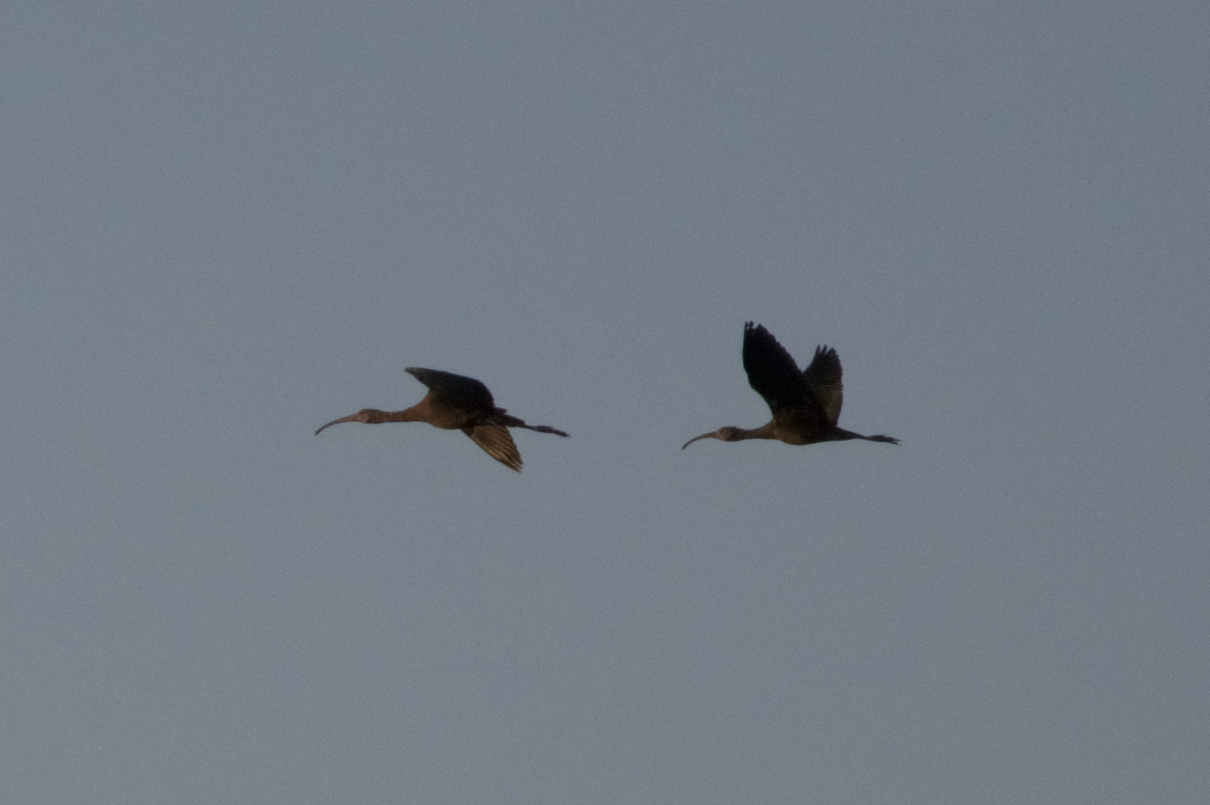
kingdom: Animalia
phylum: Chordata
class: Aves
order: Pelecaniformes
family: Threskiornithidae
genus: Plegadis
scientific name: Plegadis chihi
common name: White-faced ibis
